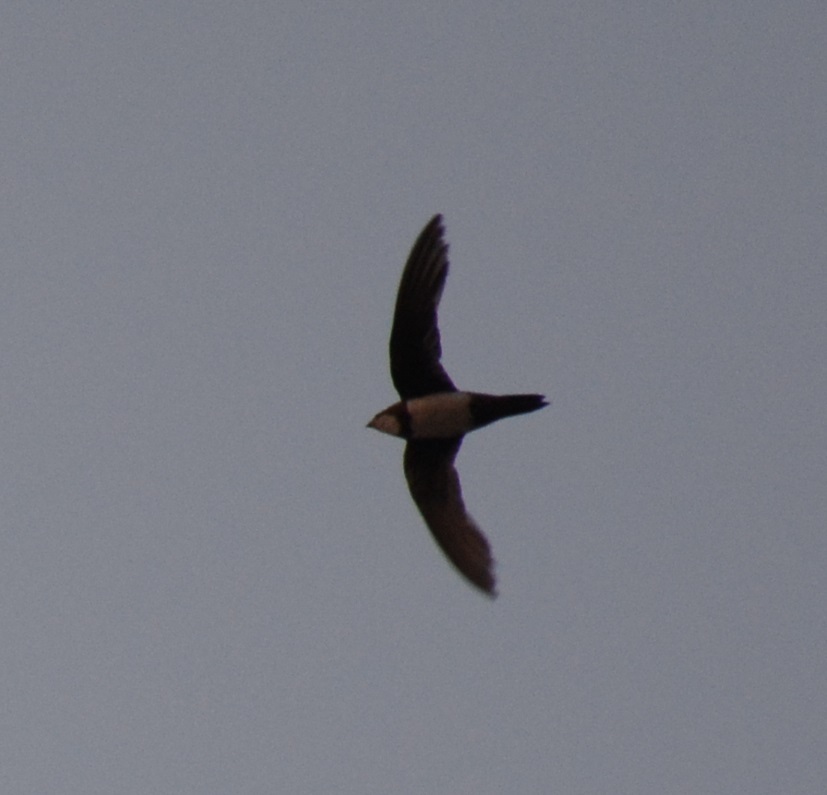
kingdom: Animalia
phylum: Chordata
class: Aves
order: Apodiformes
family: Apodidae
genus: Tachymarptis
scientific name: Tachymarptis melba
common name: Alpine swift
